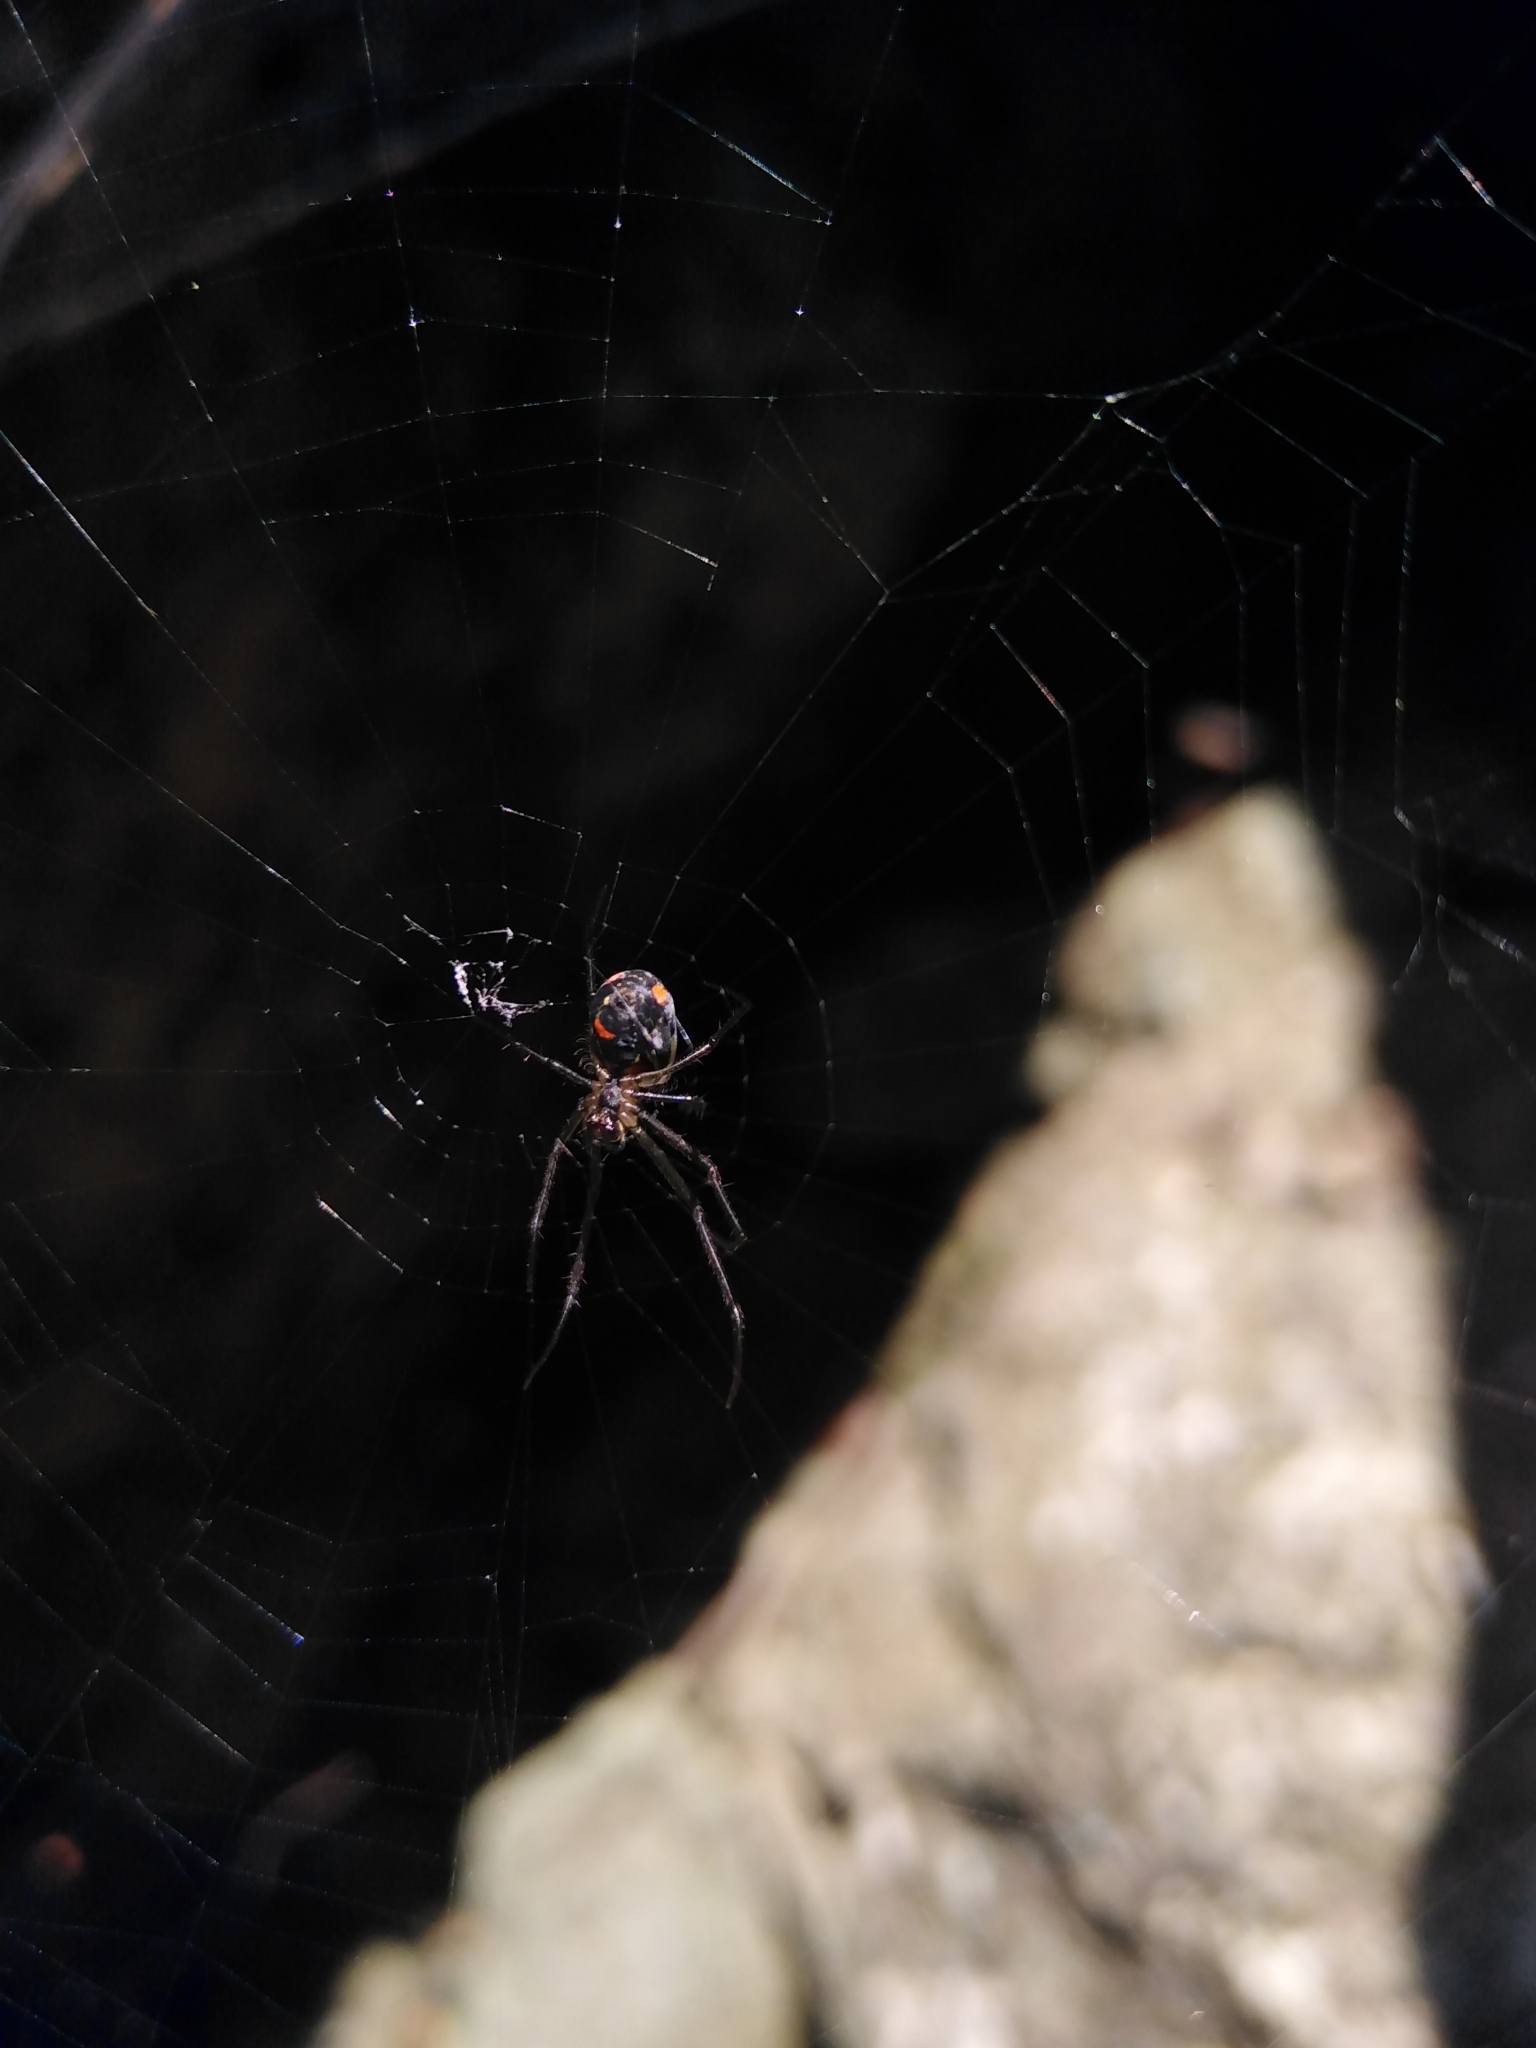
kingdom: Animalia
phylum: Arthropoda
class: Arachnida
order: Araneae
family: Tetragnathidae
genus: Leucauge
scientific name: Leucauge regnyi
